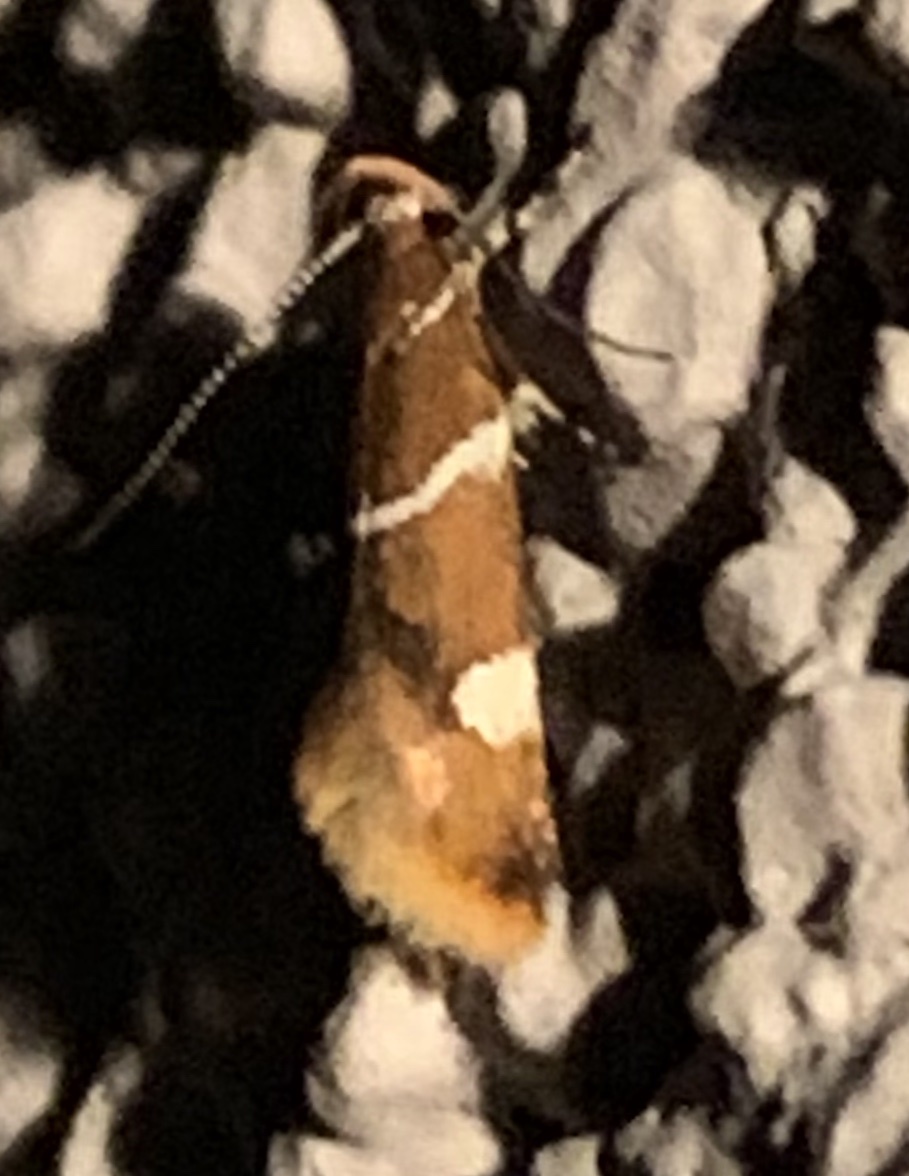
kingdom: Animalia
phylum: Arthropoda
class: Insecta
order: Lepidoptera
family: Oecophoridae
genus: Promalactis
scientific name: Promalactis suzukiella
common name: Moth
